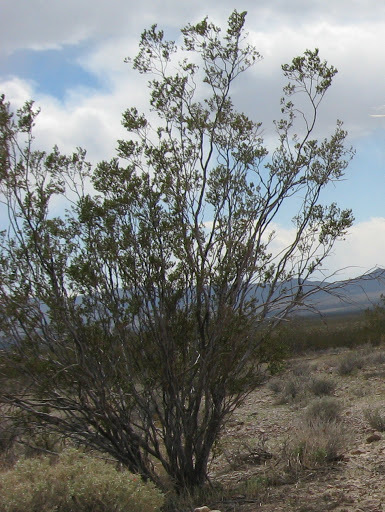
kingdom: Plantae
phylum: Tracheophyta
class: Magnoliopsida
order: Zygophyllales
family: Zygophyllaceae
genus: Larrea
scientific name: Larrea tridentata
